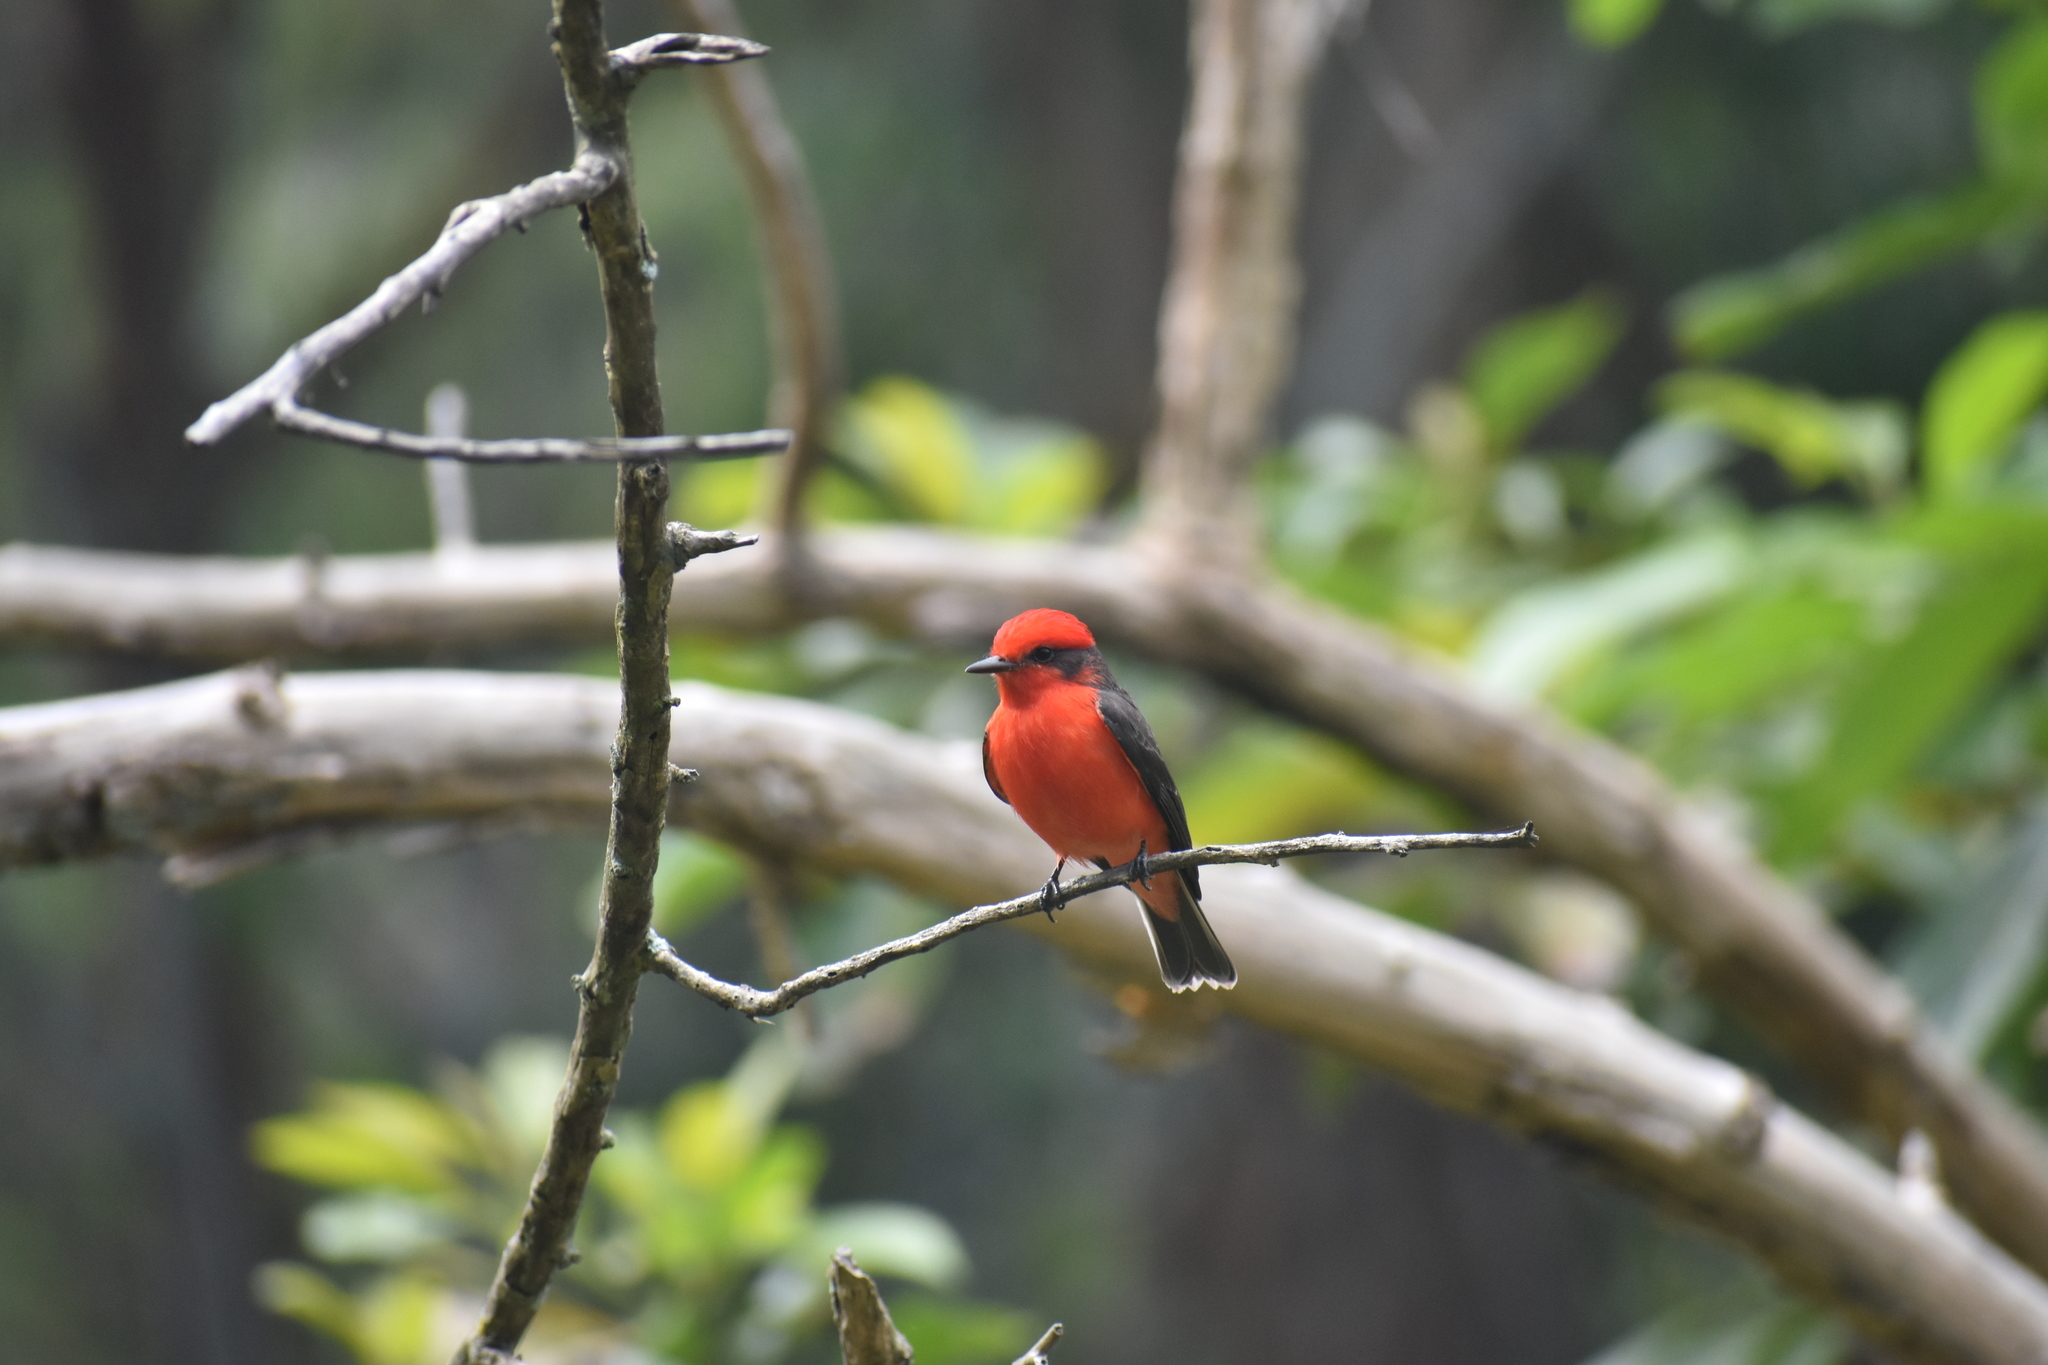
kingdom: Animalia
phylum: Chordata
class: Aves
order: Passeriformes
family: Tyrannidae
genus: Pyrocephalus
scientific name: Pyrocephalus rubinus
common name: Vermilion flycatcher
